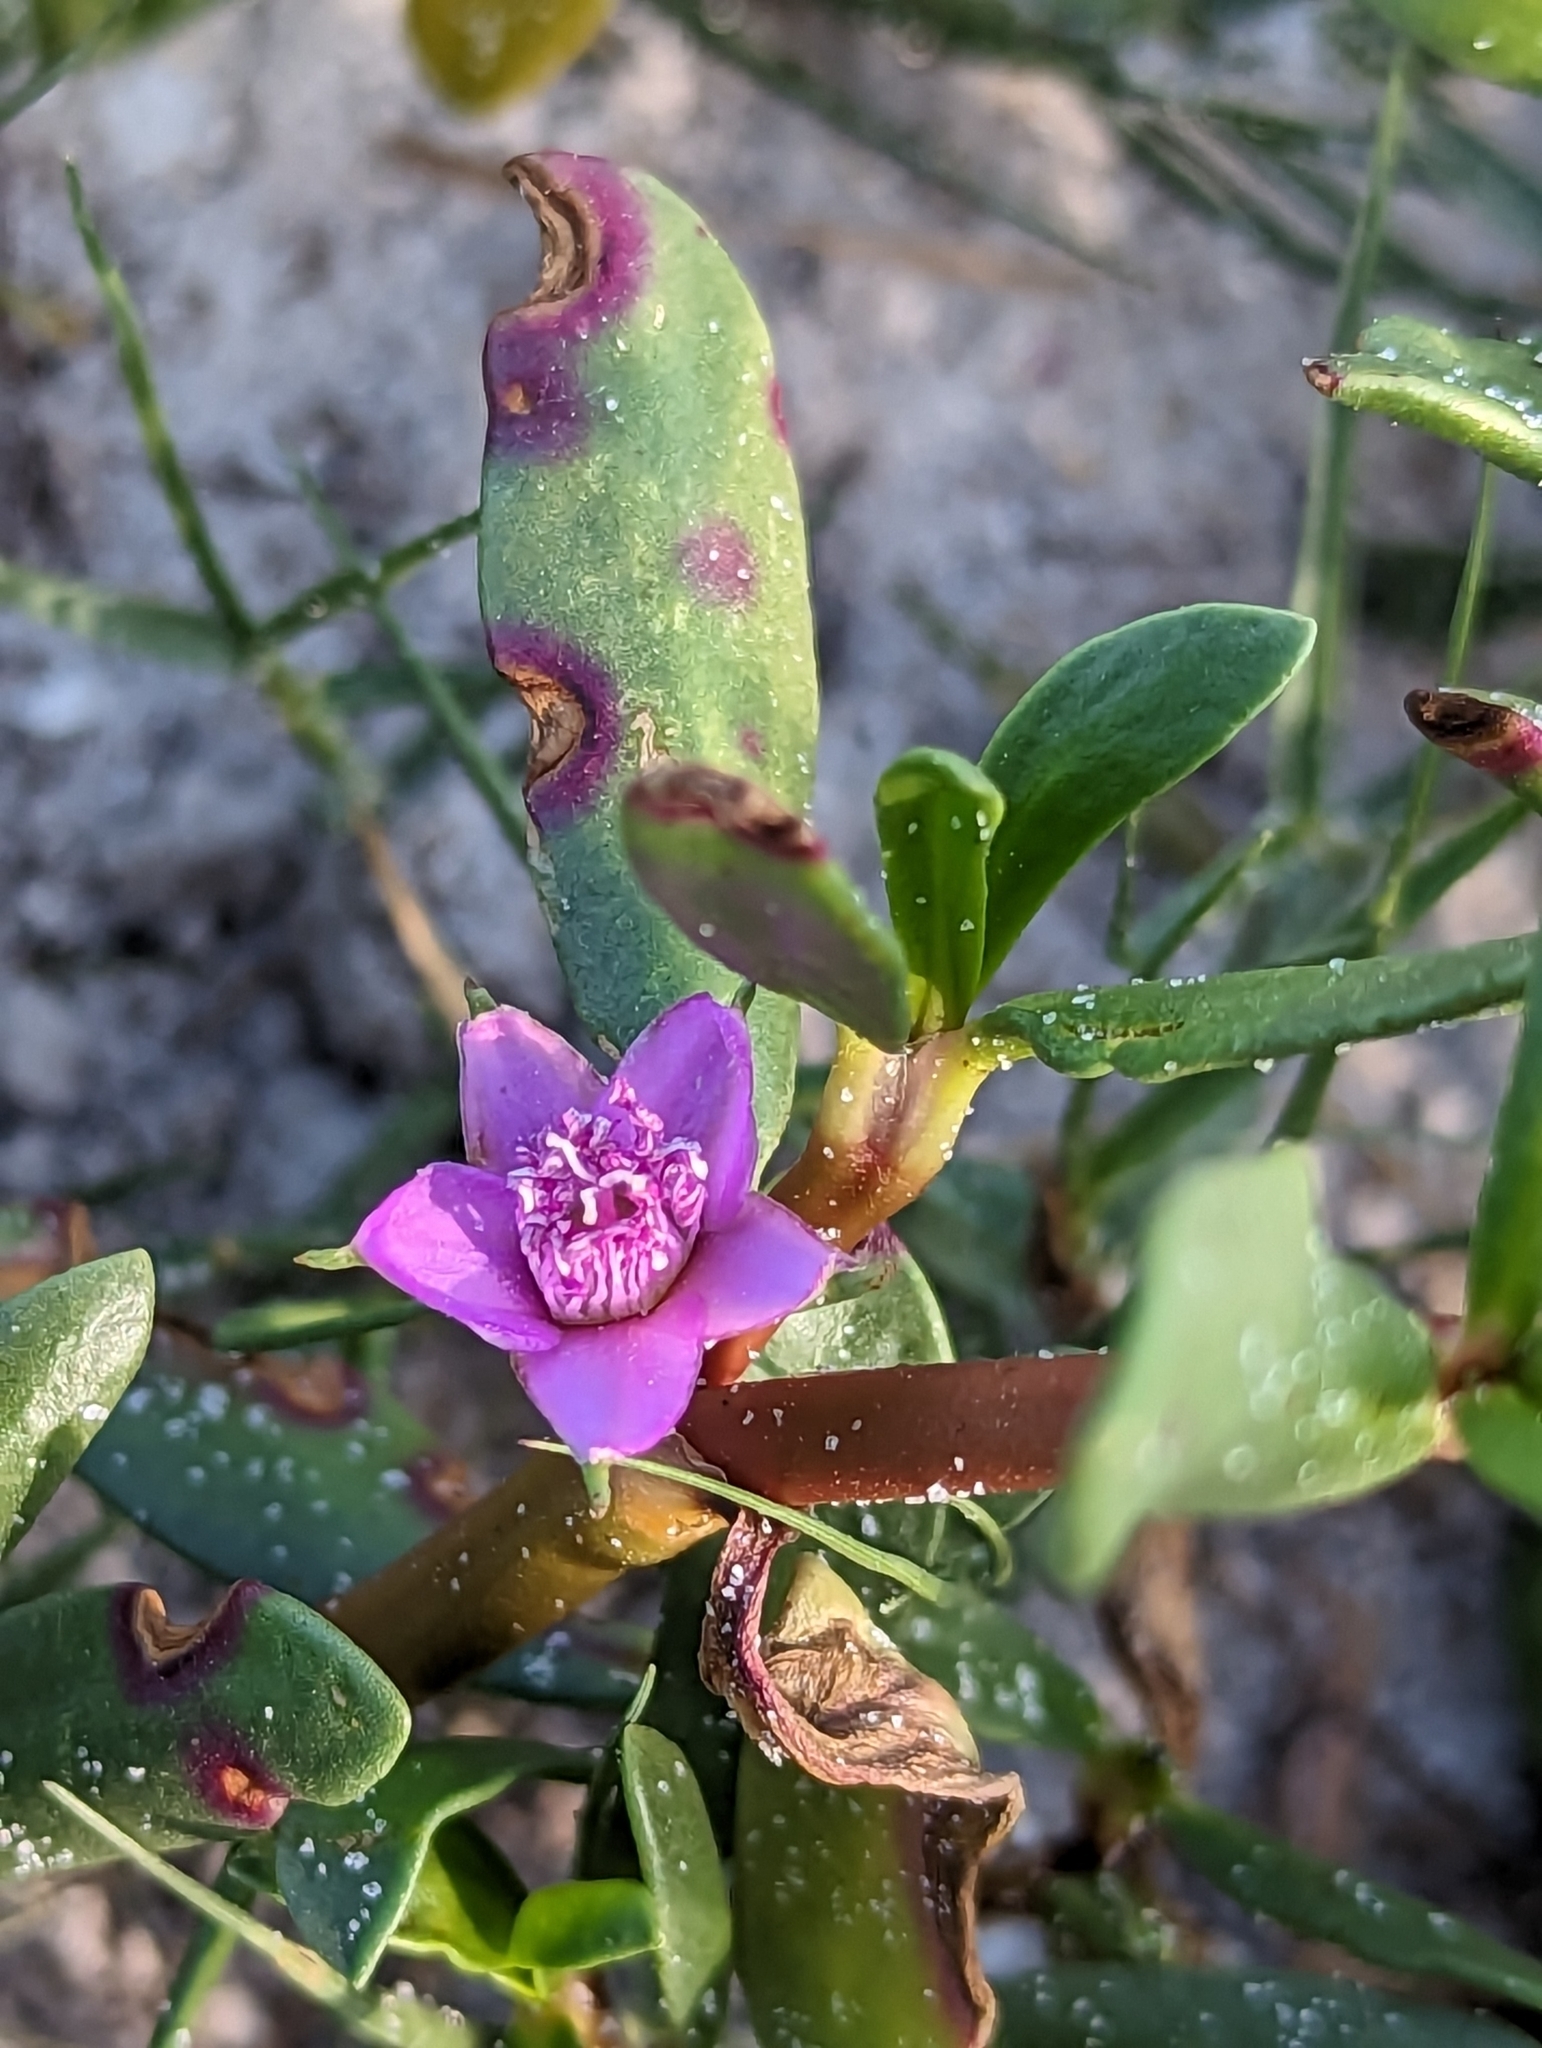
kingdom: Plantae
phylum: Tracheophyta
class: Magnoliopsida
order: Caryophyllales
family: Aizoaceae
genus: Sesuvium
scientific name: Sesuvium portulacastrum
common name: Sea-purslane
